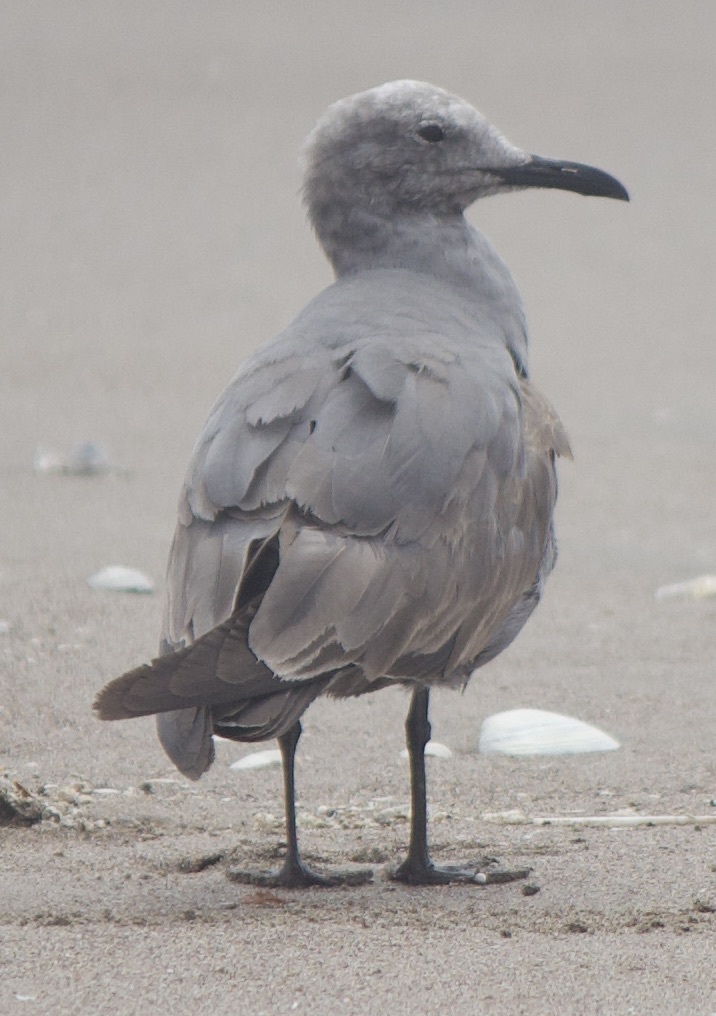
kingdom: Animalia
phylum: Chordata
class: Aves
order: Charadriiformes
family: Laridae
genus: Leucophaeus
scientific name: Leucophaeus modestus
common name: Gray gull
